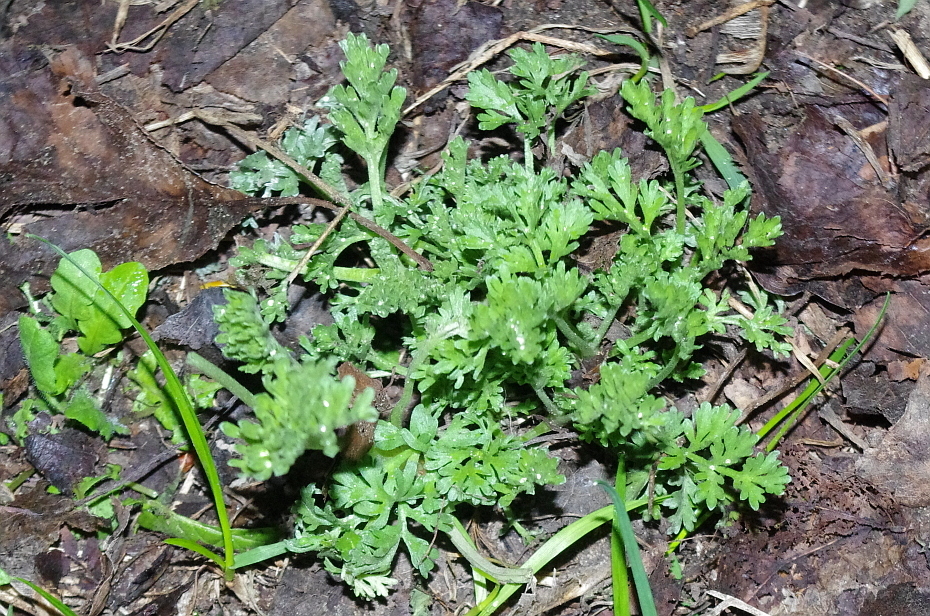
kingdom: Plantae
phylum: Tracheophyta
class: Magnoliopsida
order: Asterales
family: Asteraceae
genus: Artemisia
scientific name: Artemisia absinthium
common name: Wormwood
